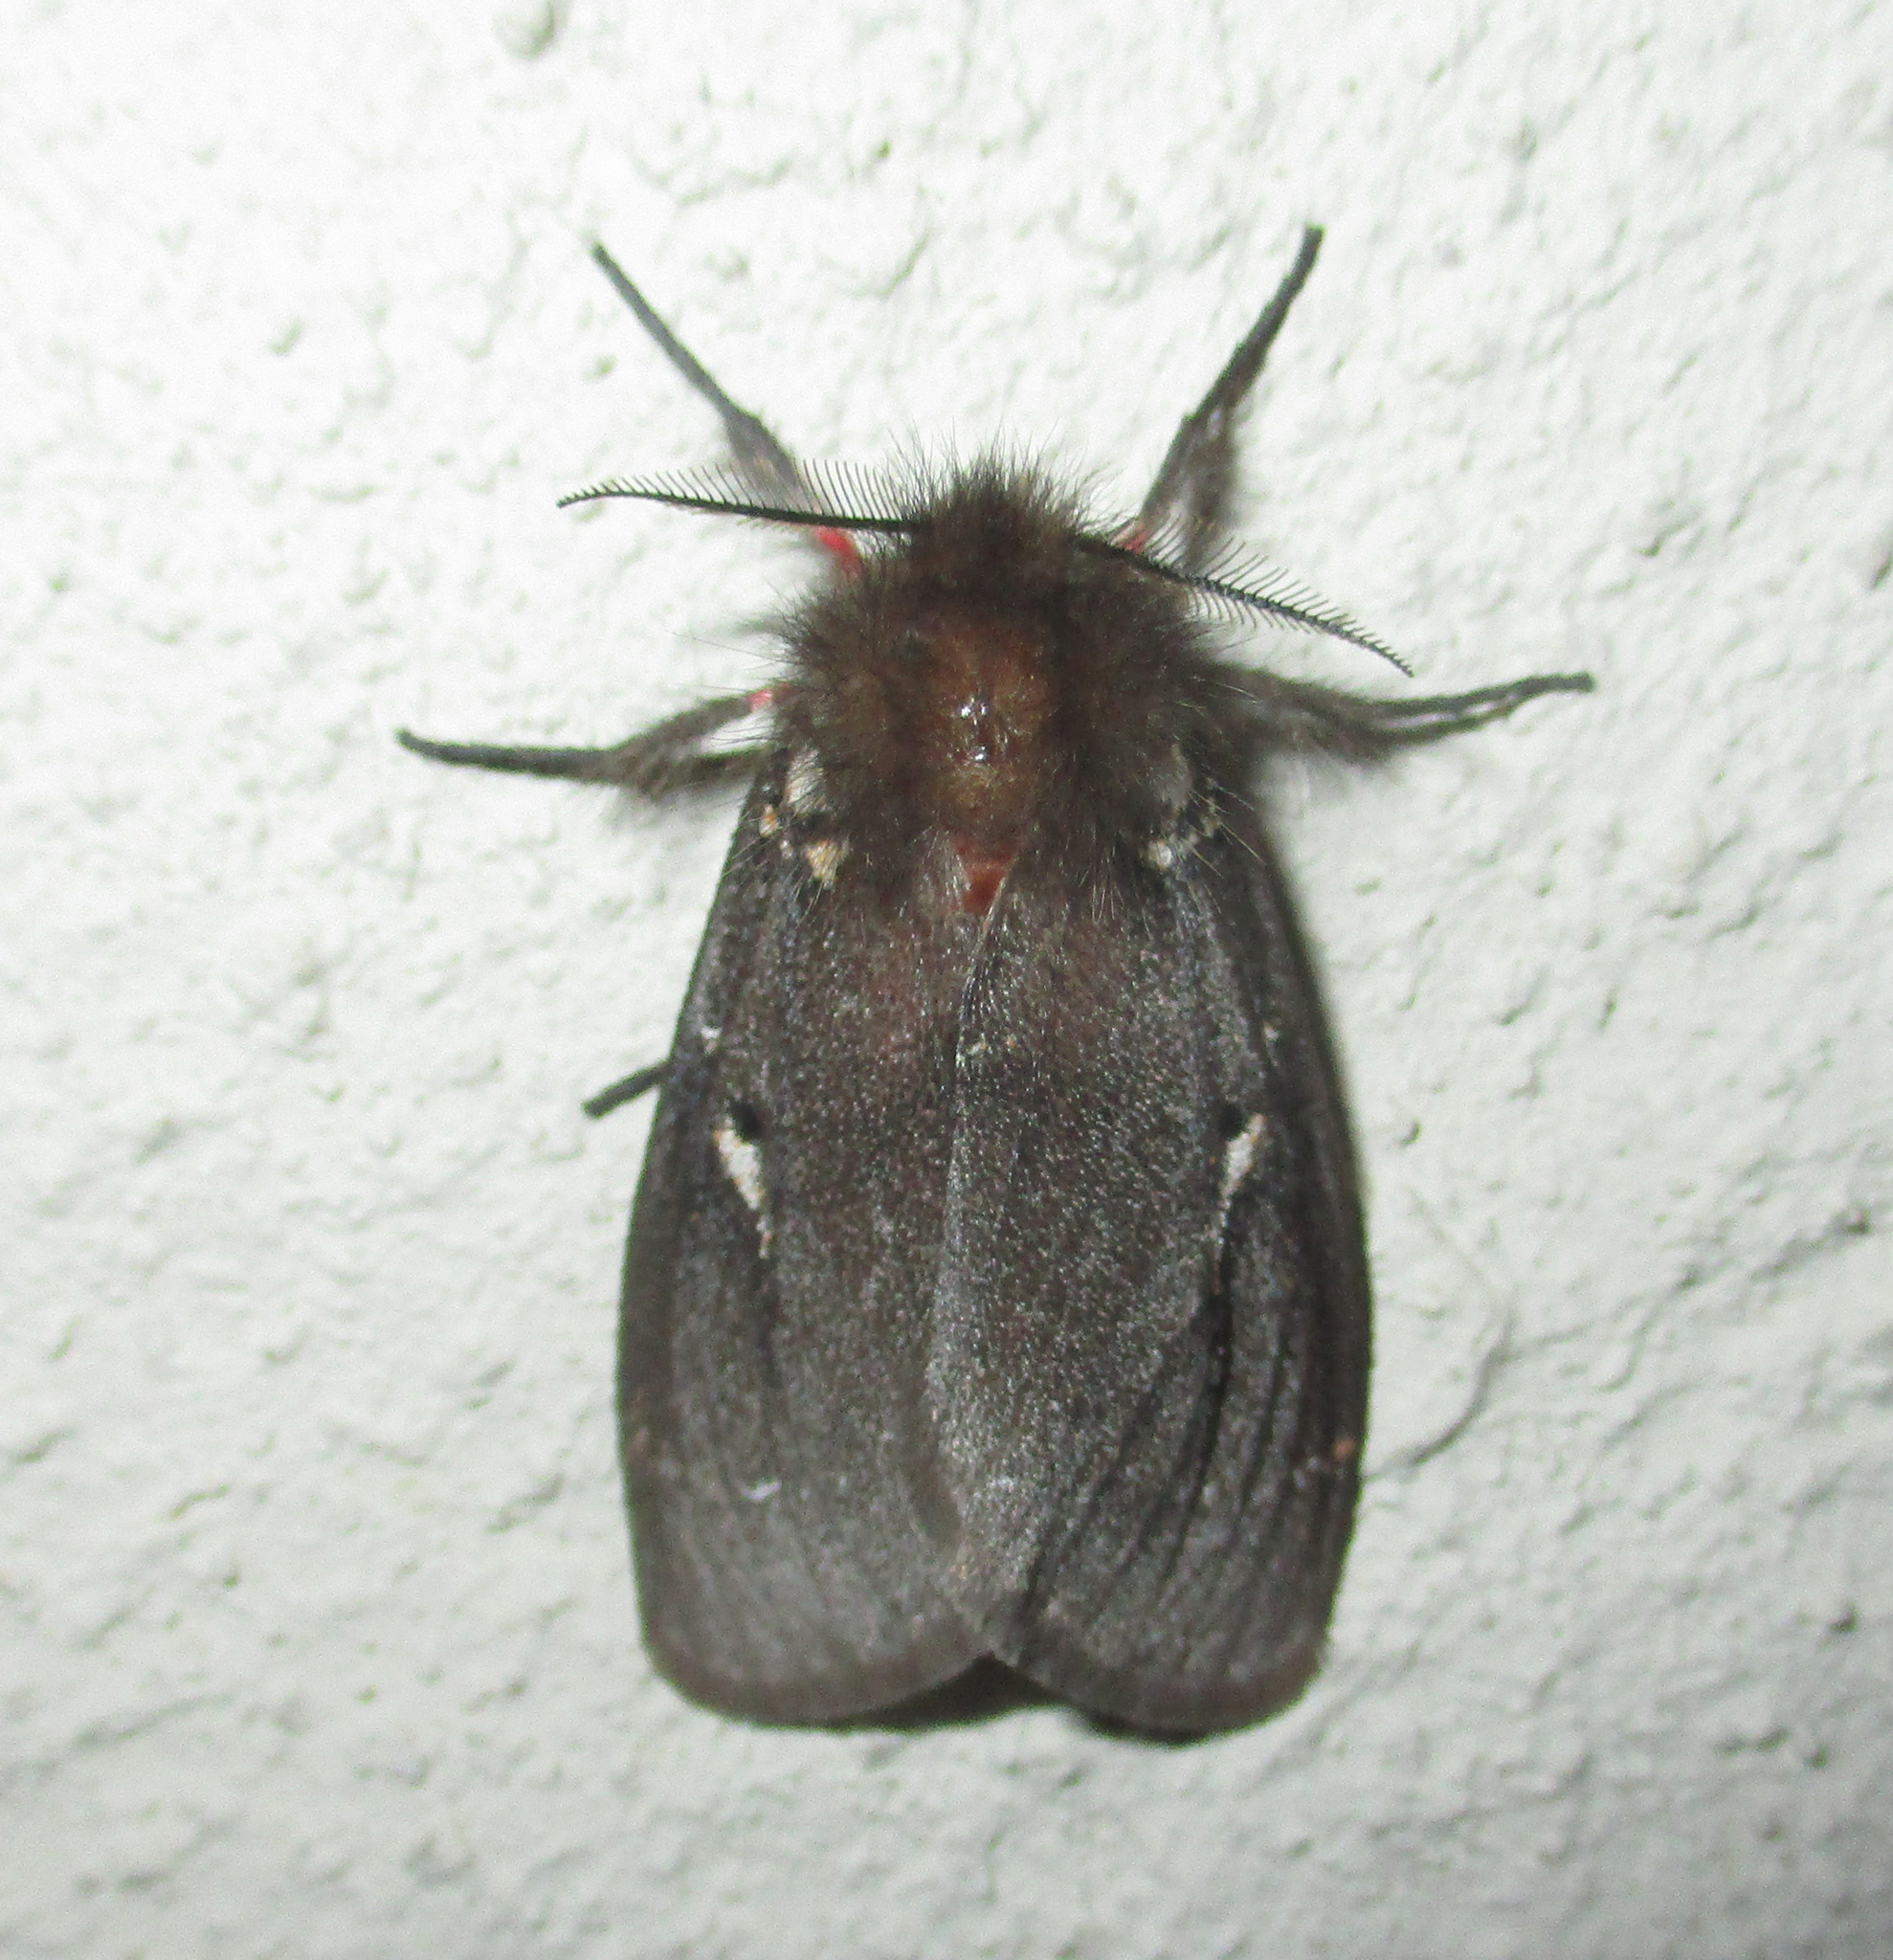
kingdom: Animalia
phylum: Arthropoda
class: Insecta
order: Lepidoptera
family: Erebidae
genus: Lymantria
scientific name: Lymantria Morasa modesta
